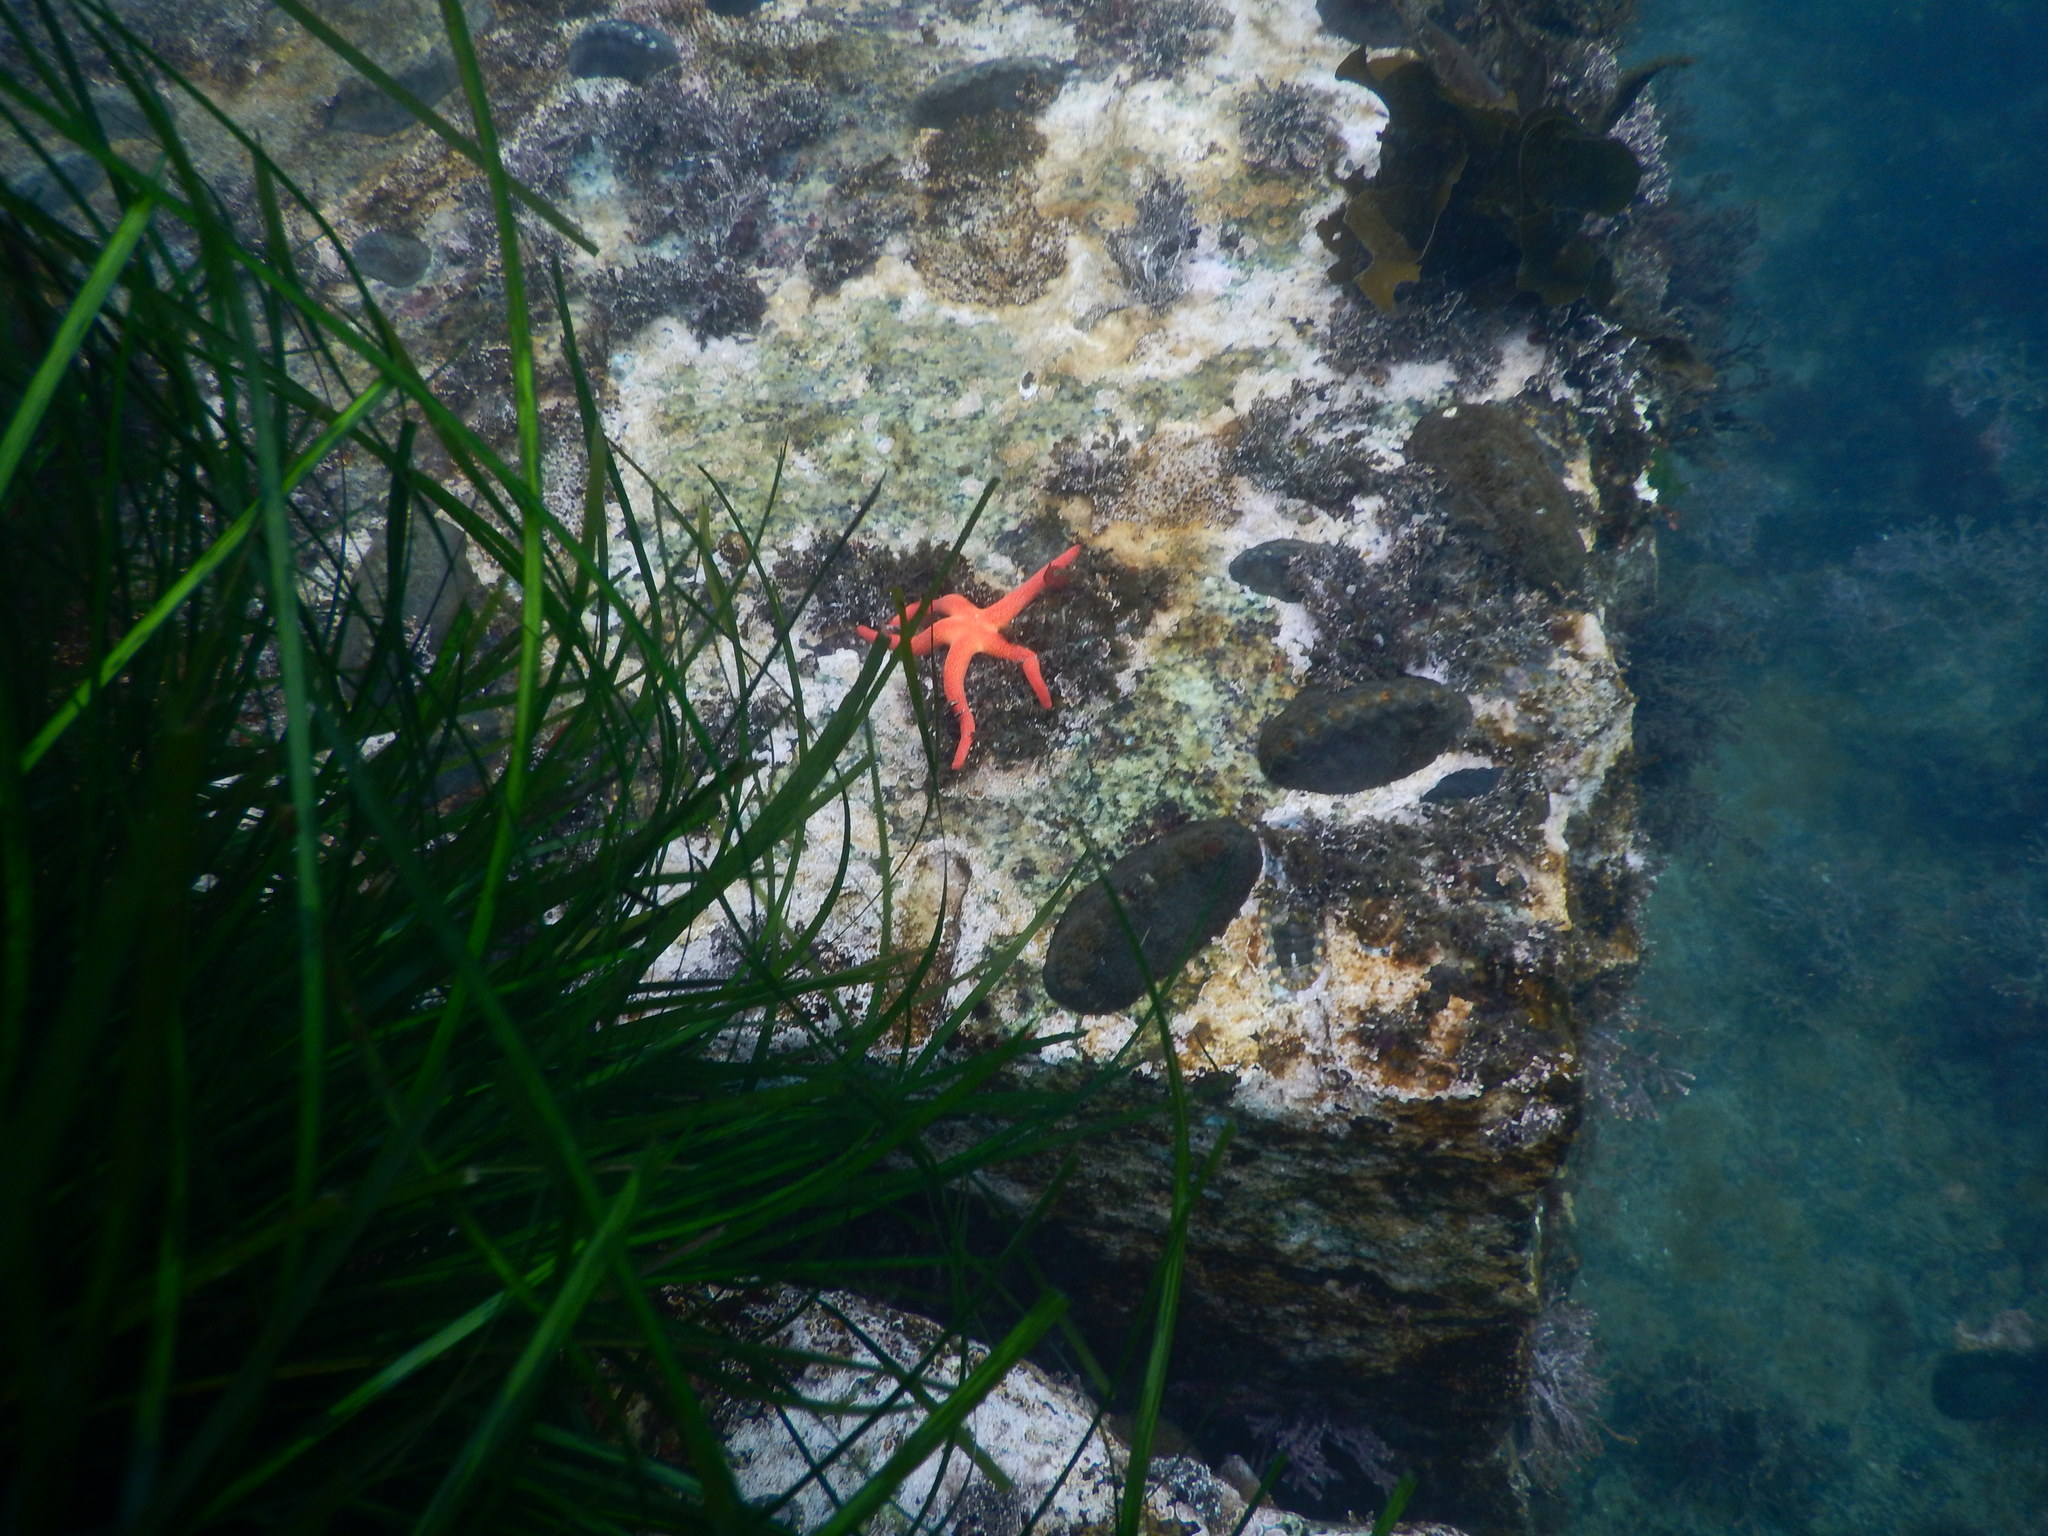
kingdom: Animalia
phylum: Echinodermata
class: Asteroidea
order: Spinulosida
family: Echinasteridae
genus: Henricia
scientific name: Henricia leviuscula
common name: Pacific blood star
